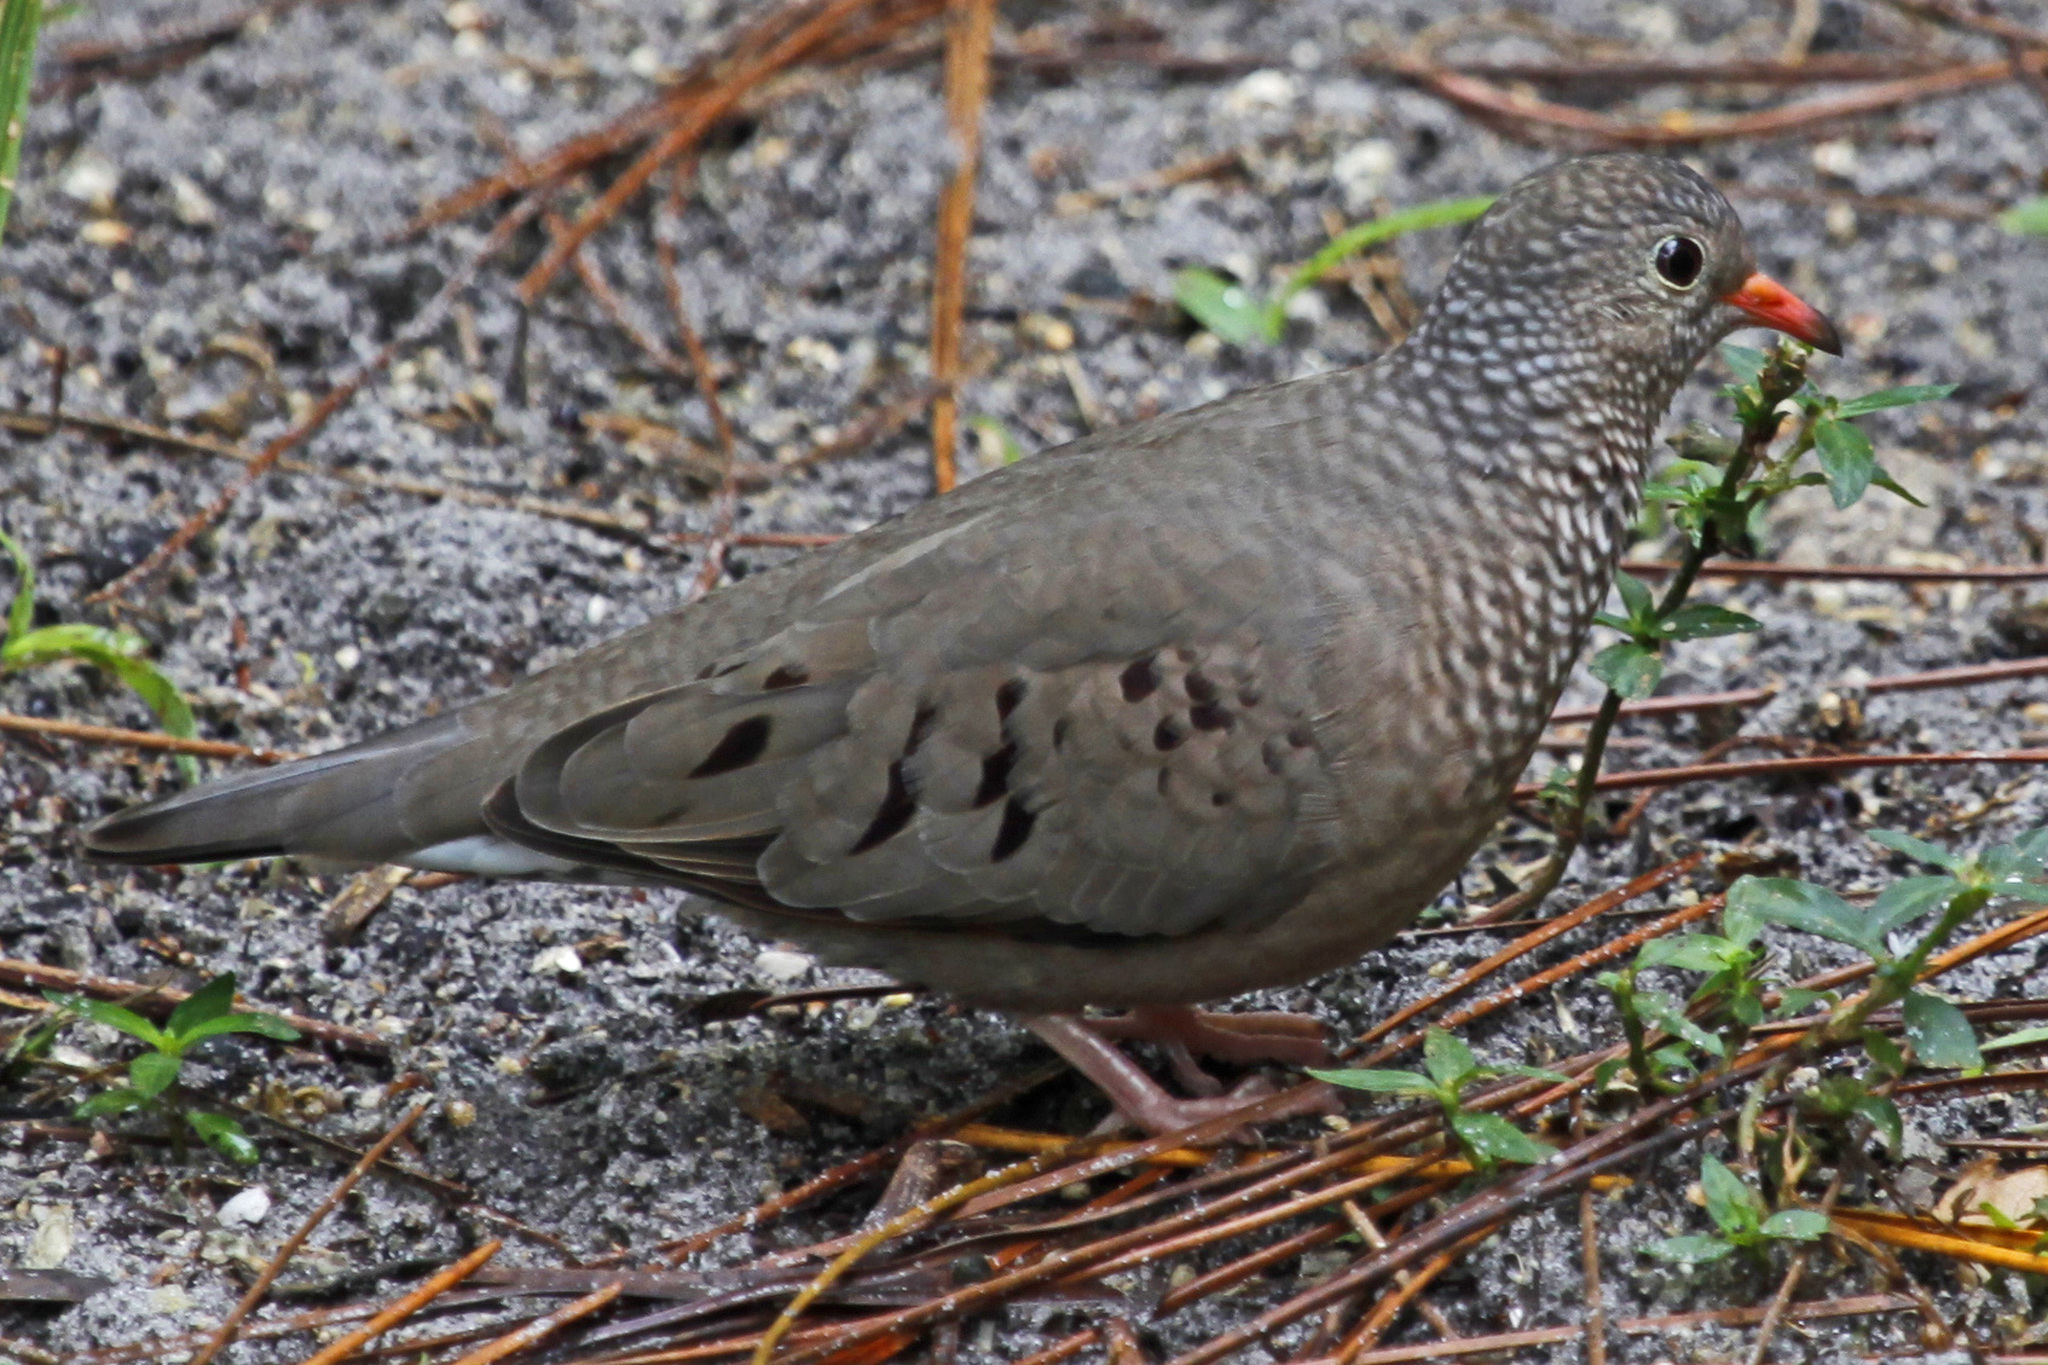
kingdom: Animalia
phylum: Chordata
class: Aves
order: Columbiformes
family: Columbidae
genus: Columbina
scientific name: Columbina passerina
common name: Common ground-dove
